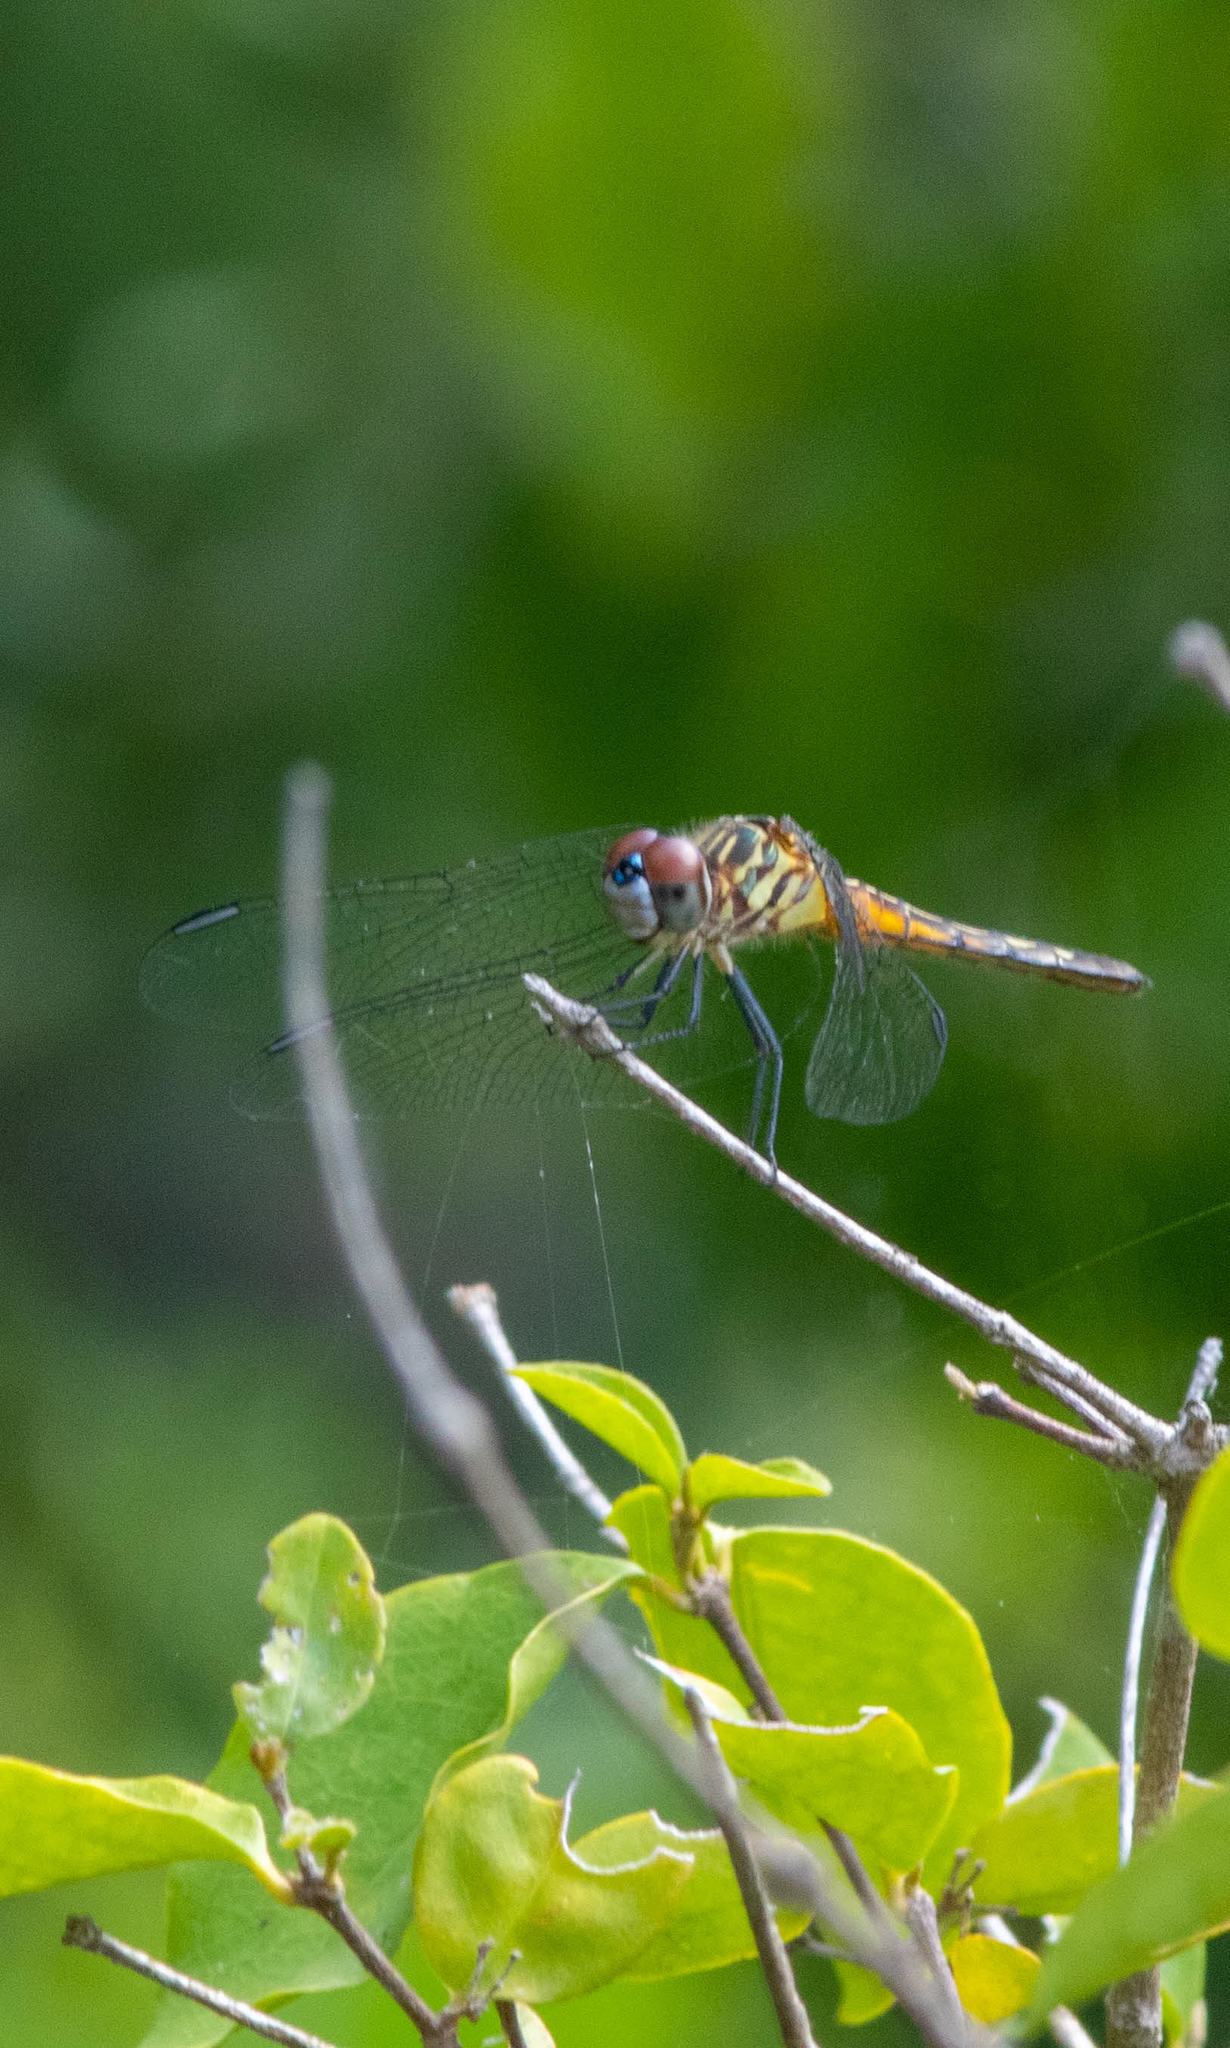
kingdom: Animalia
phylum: Arthropoda
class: Insecta
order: Odonata
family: Libellulidae
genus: Pachydiplax
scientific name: Pachydiplax longipennis
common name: Blue dasher
